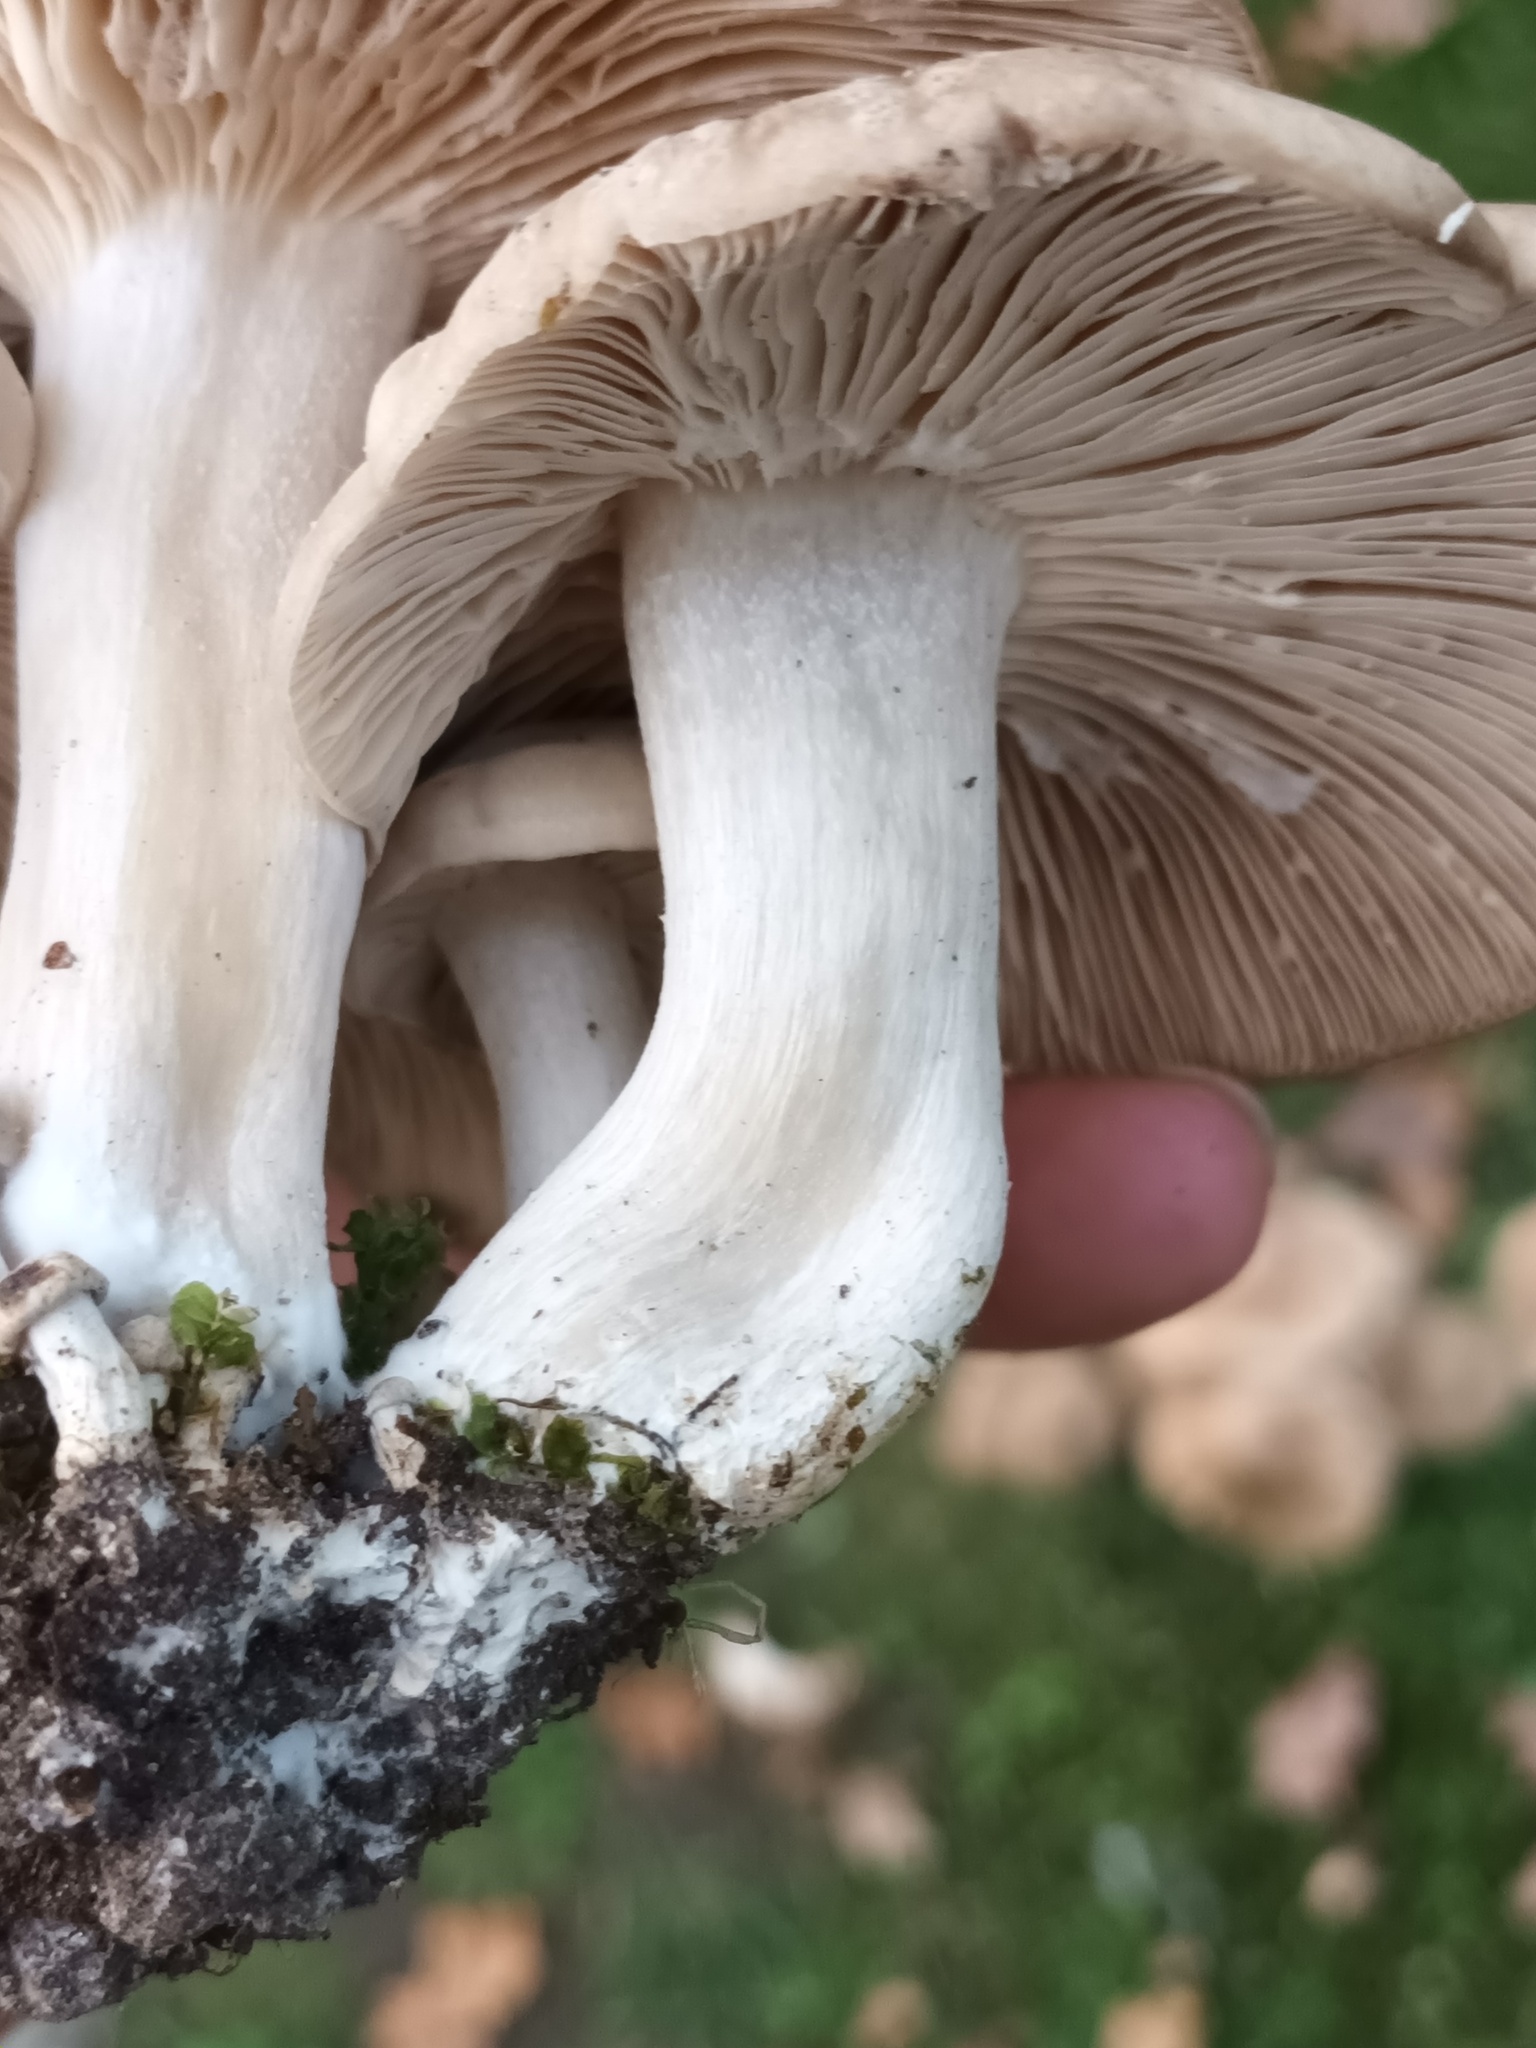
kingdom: Fungi
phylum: Basidiomycota
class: Agaricomycetes
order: Agaricales
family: Lyophyllaceae
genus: Lyophyllum
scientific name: Lyophyllum decastes
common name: Clustered domecap
